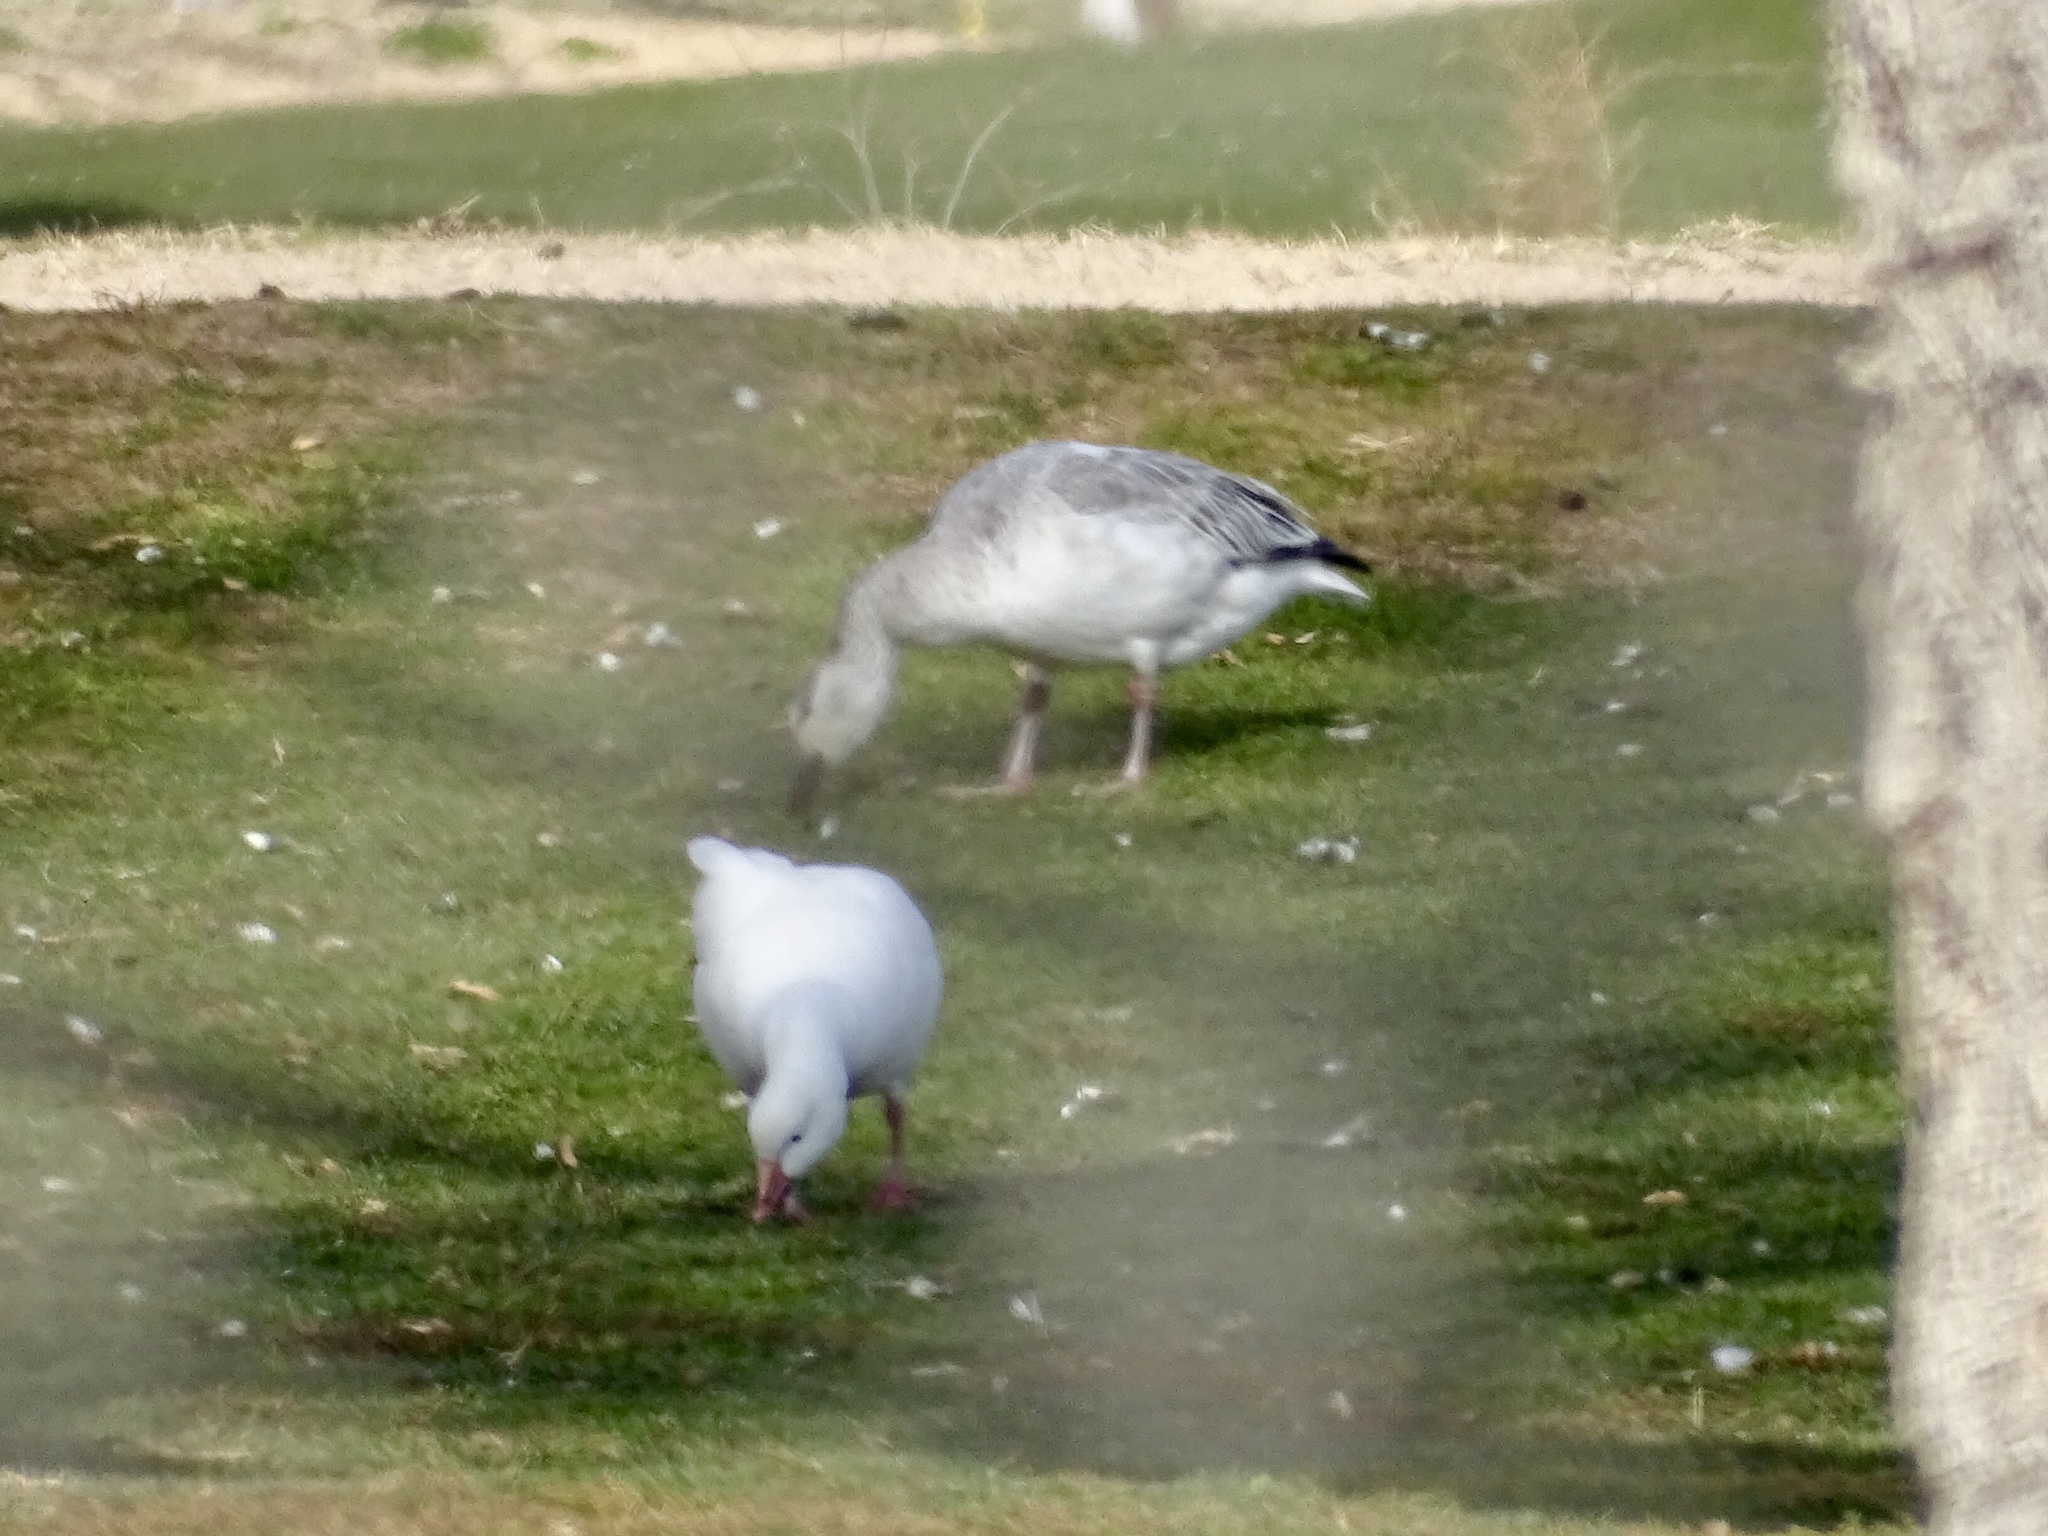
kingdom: Animalia
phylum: Chordata
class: Aves
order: Anseriformes
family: Anatidae
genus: Anser
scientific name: Anser caerulescens
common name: Snow goose
